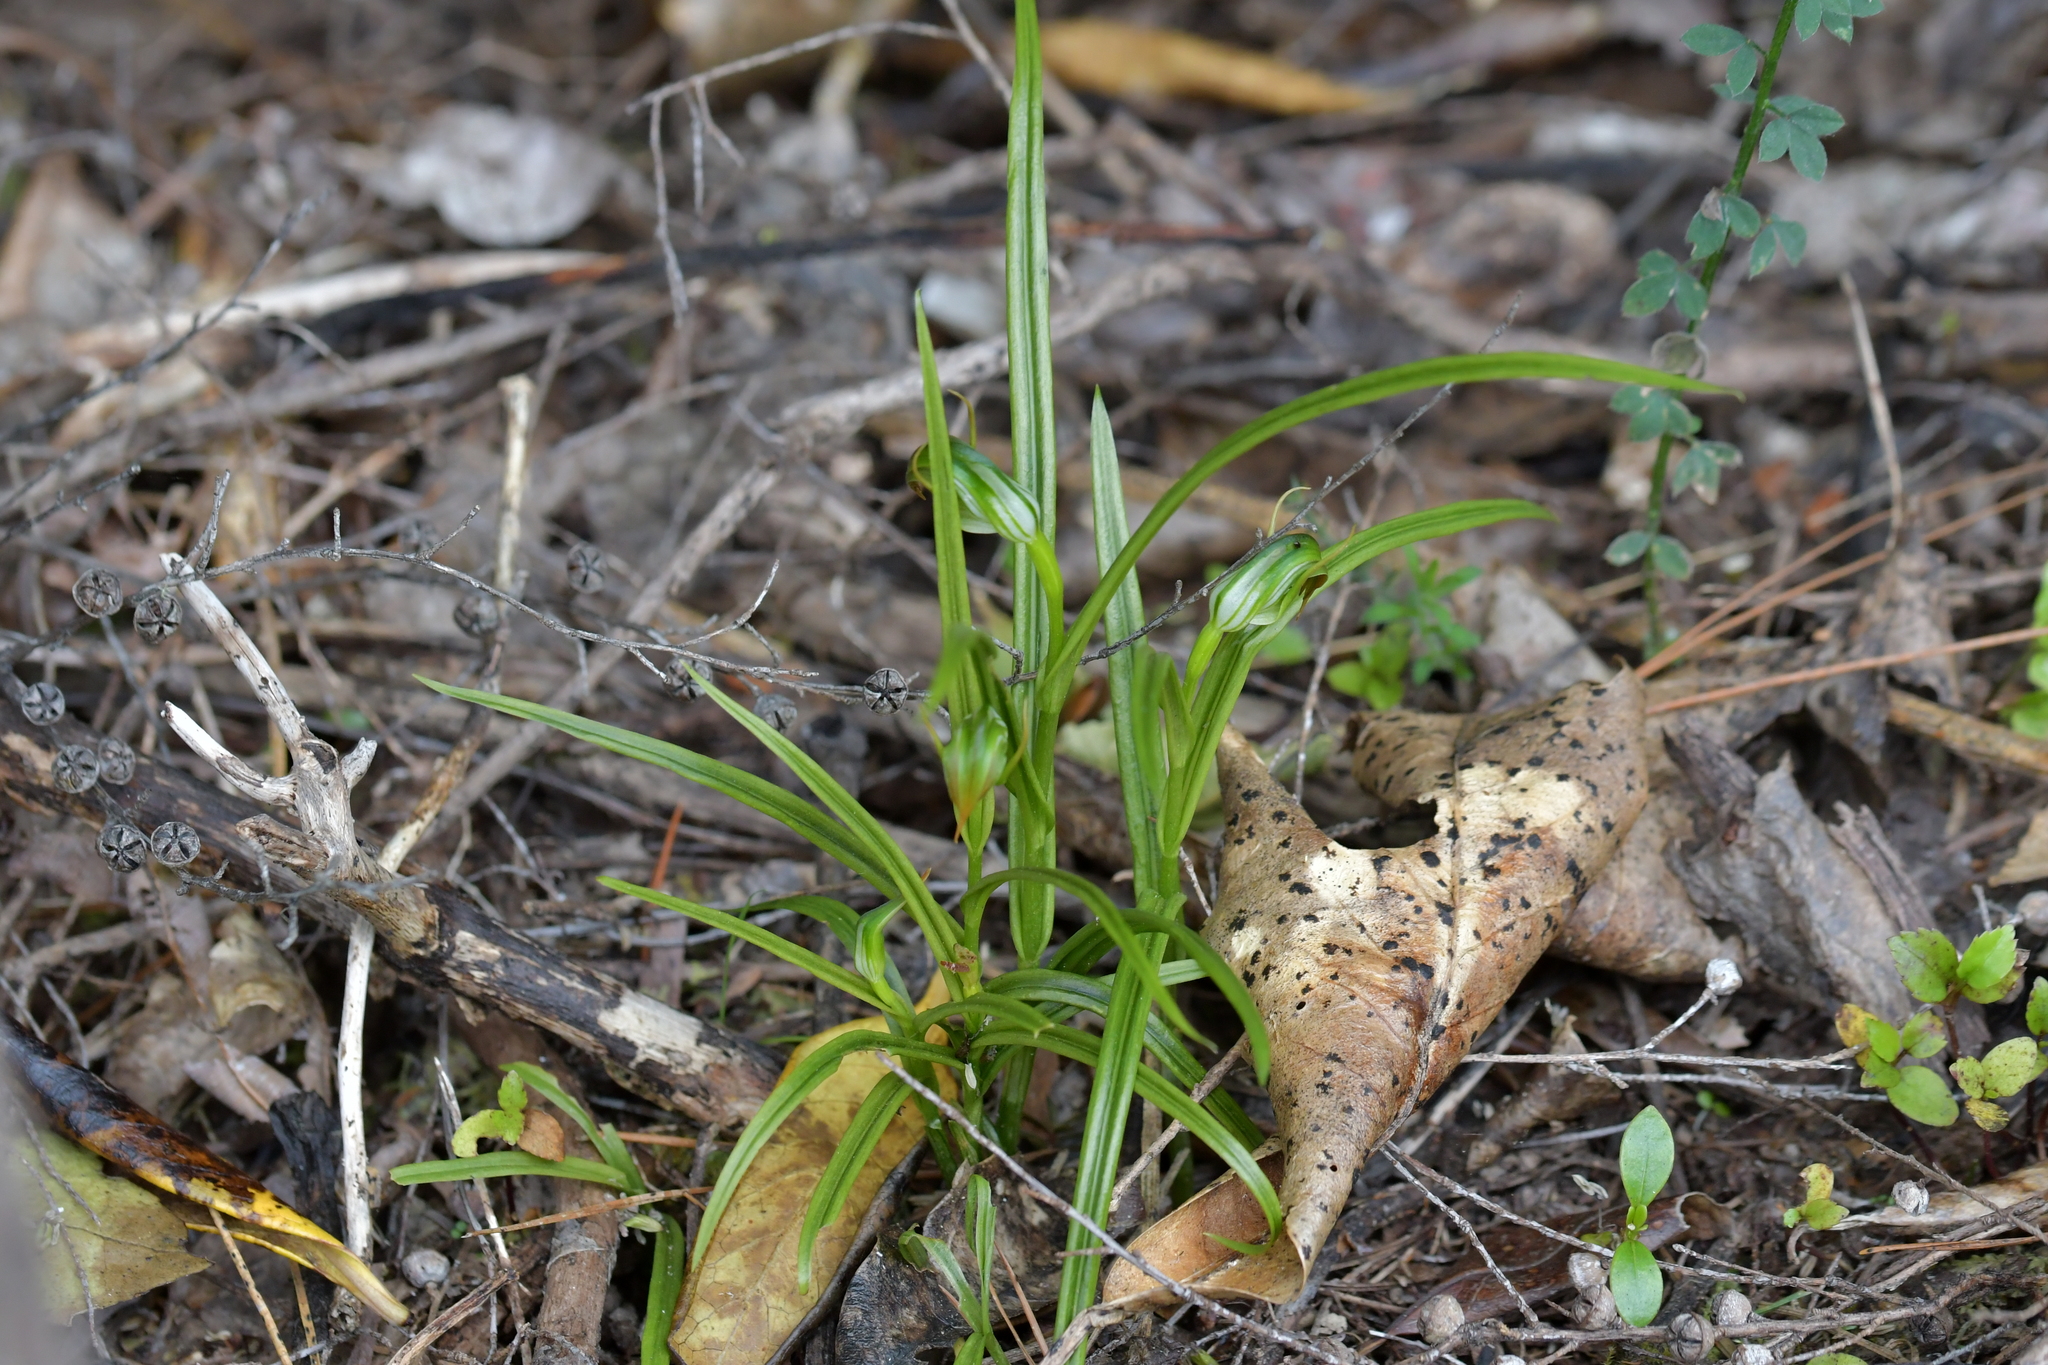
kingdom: Plantae
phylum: Tracheophyta
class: Liliopsida
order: Asparagales
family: Orchidaceae
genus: Pterostylis
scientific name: Pterostylis graminea
